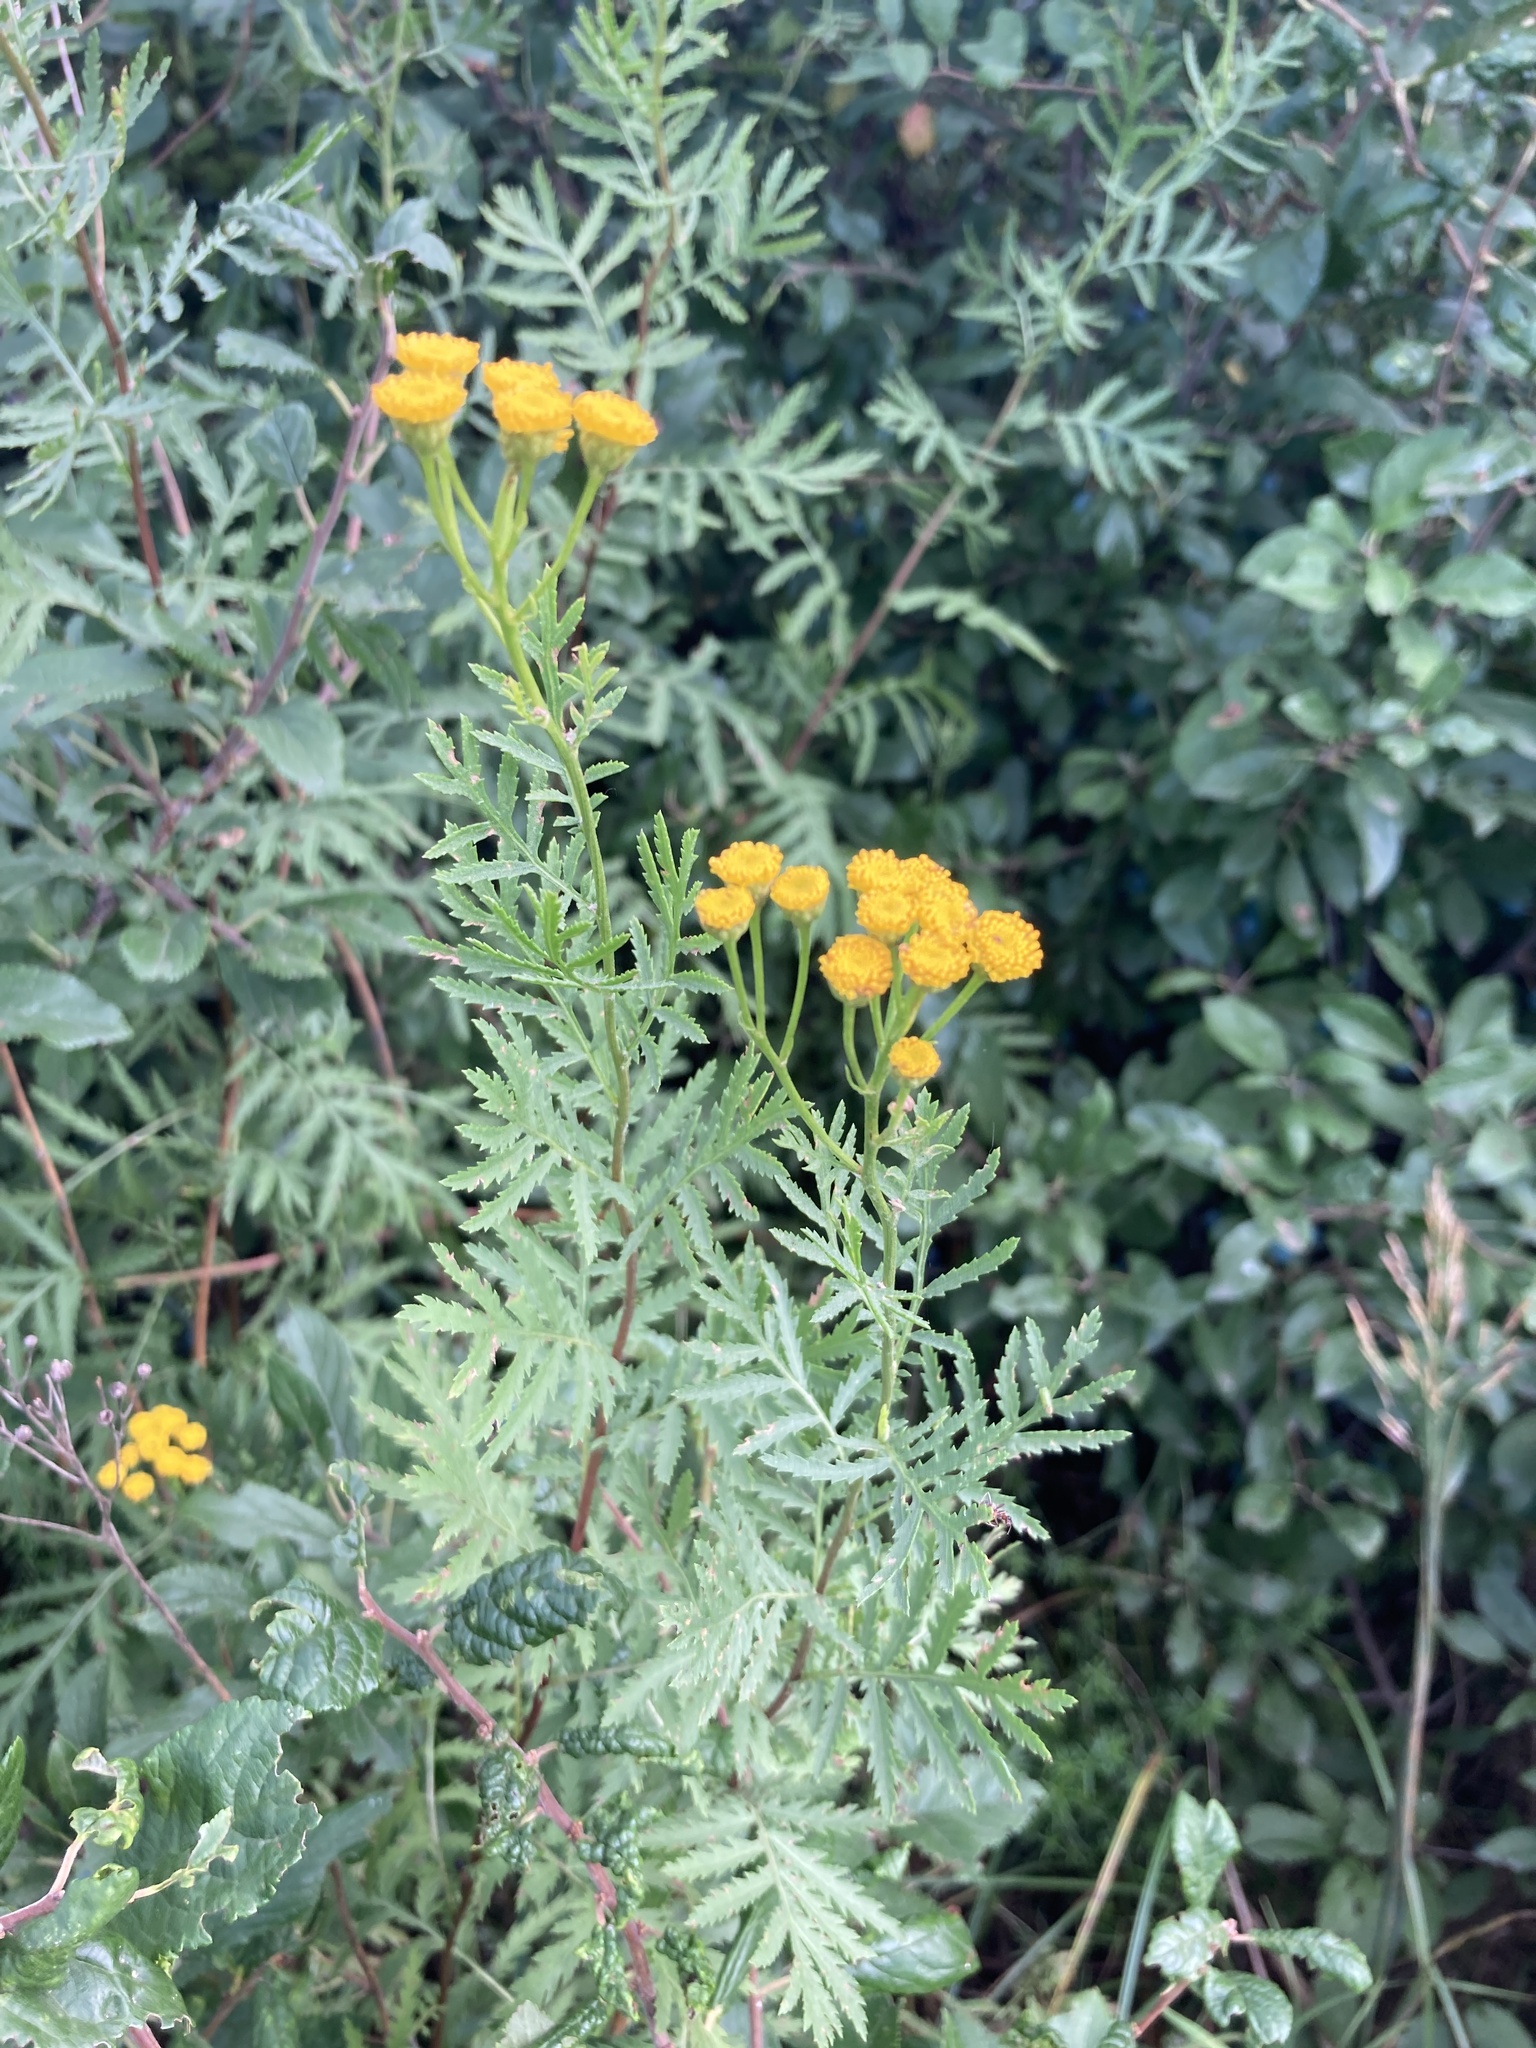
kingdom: Plantae
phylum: Tracheophyta
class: Magnoliopsida
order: Asterales
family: Asteraceae
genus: Tanacetum
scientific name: Tanacetum vulgare
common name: Common tansy
